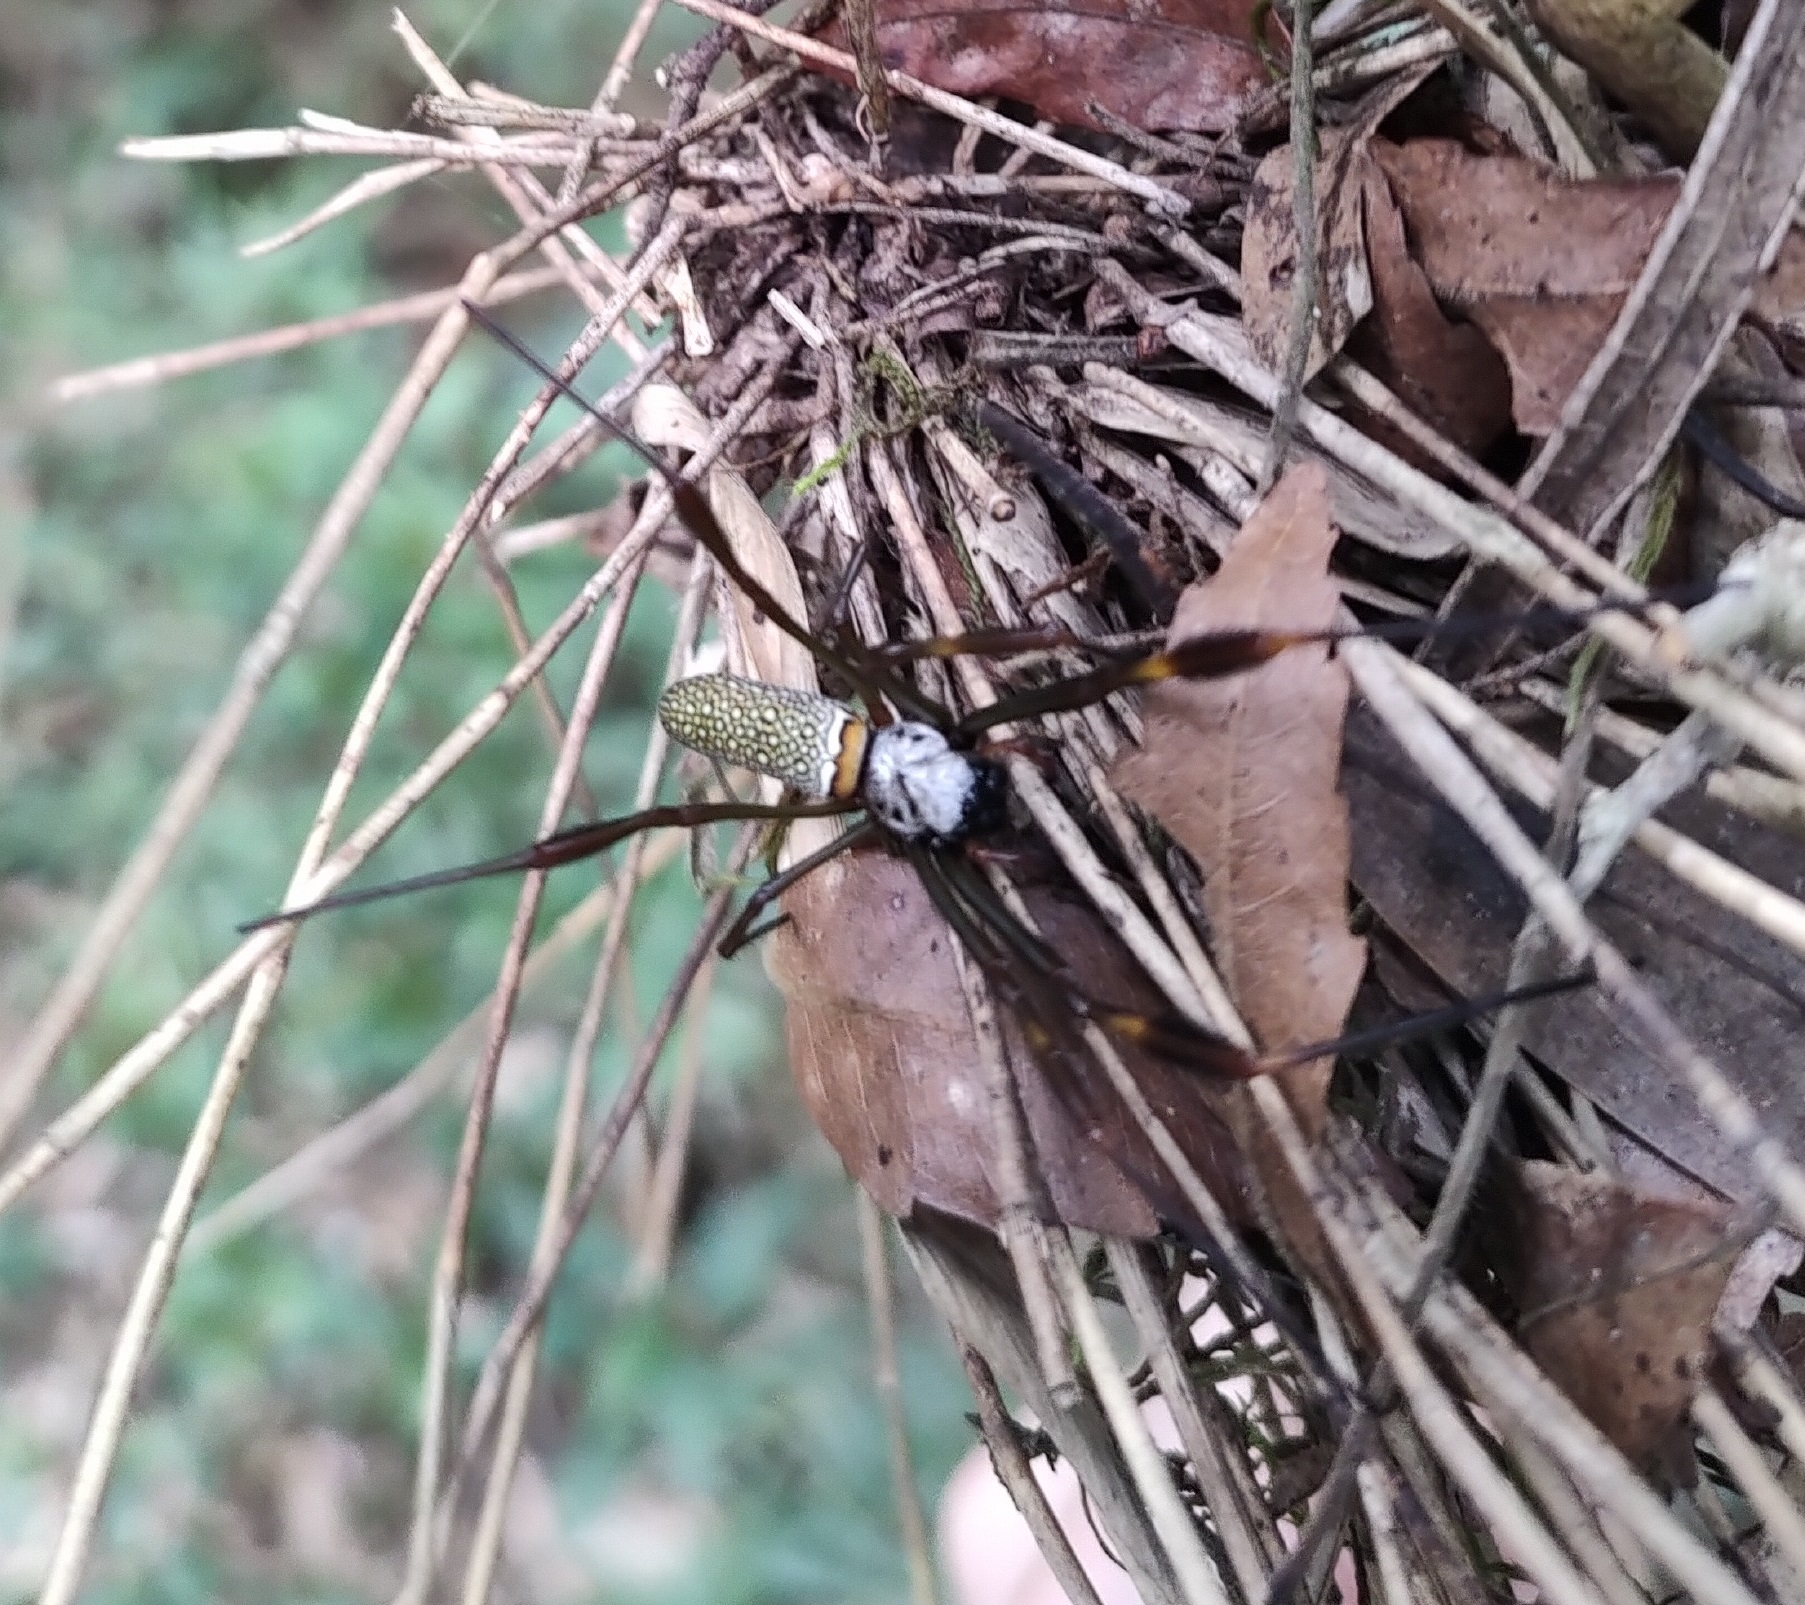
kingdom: Animalia
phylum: Arthropoda
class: Arachnida
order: Araneae
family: Araneidae
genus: Trichonephila
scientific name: Trichonephila clavipes
